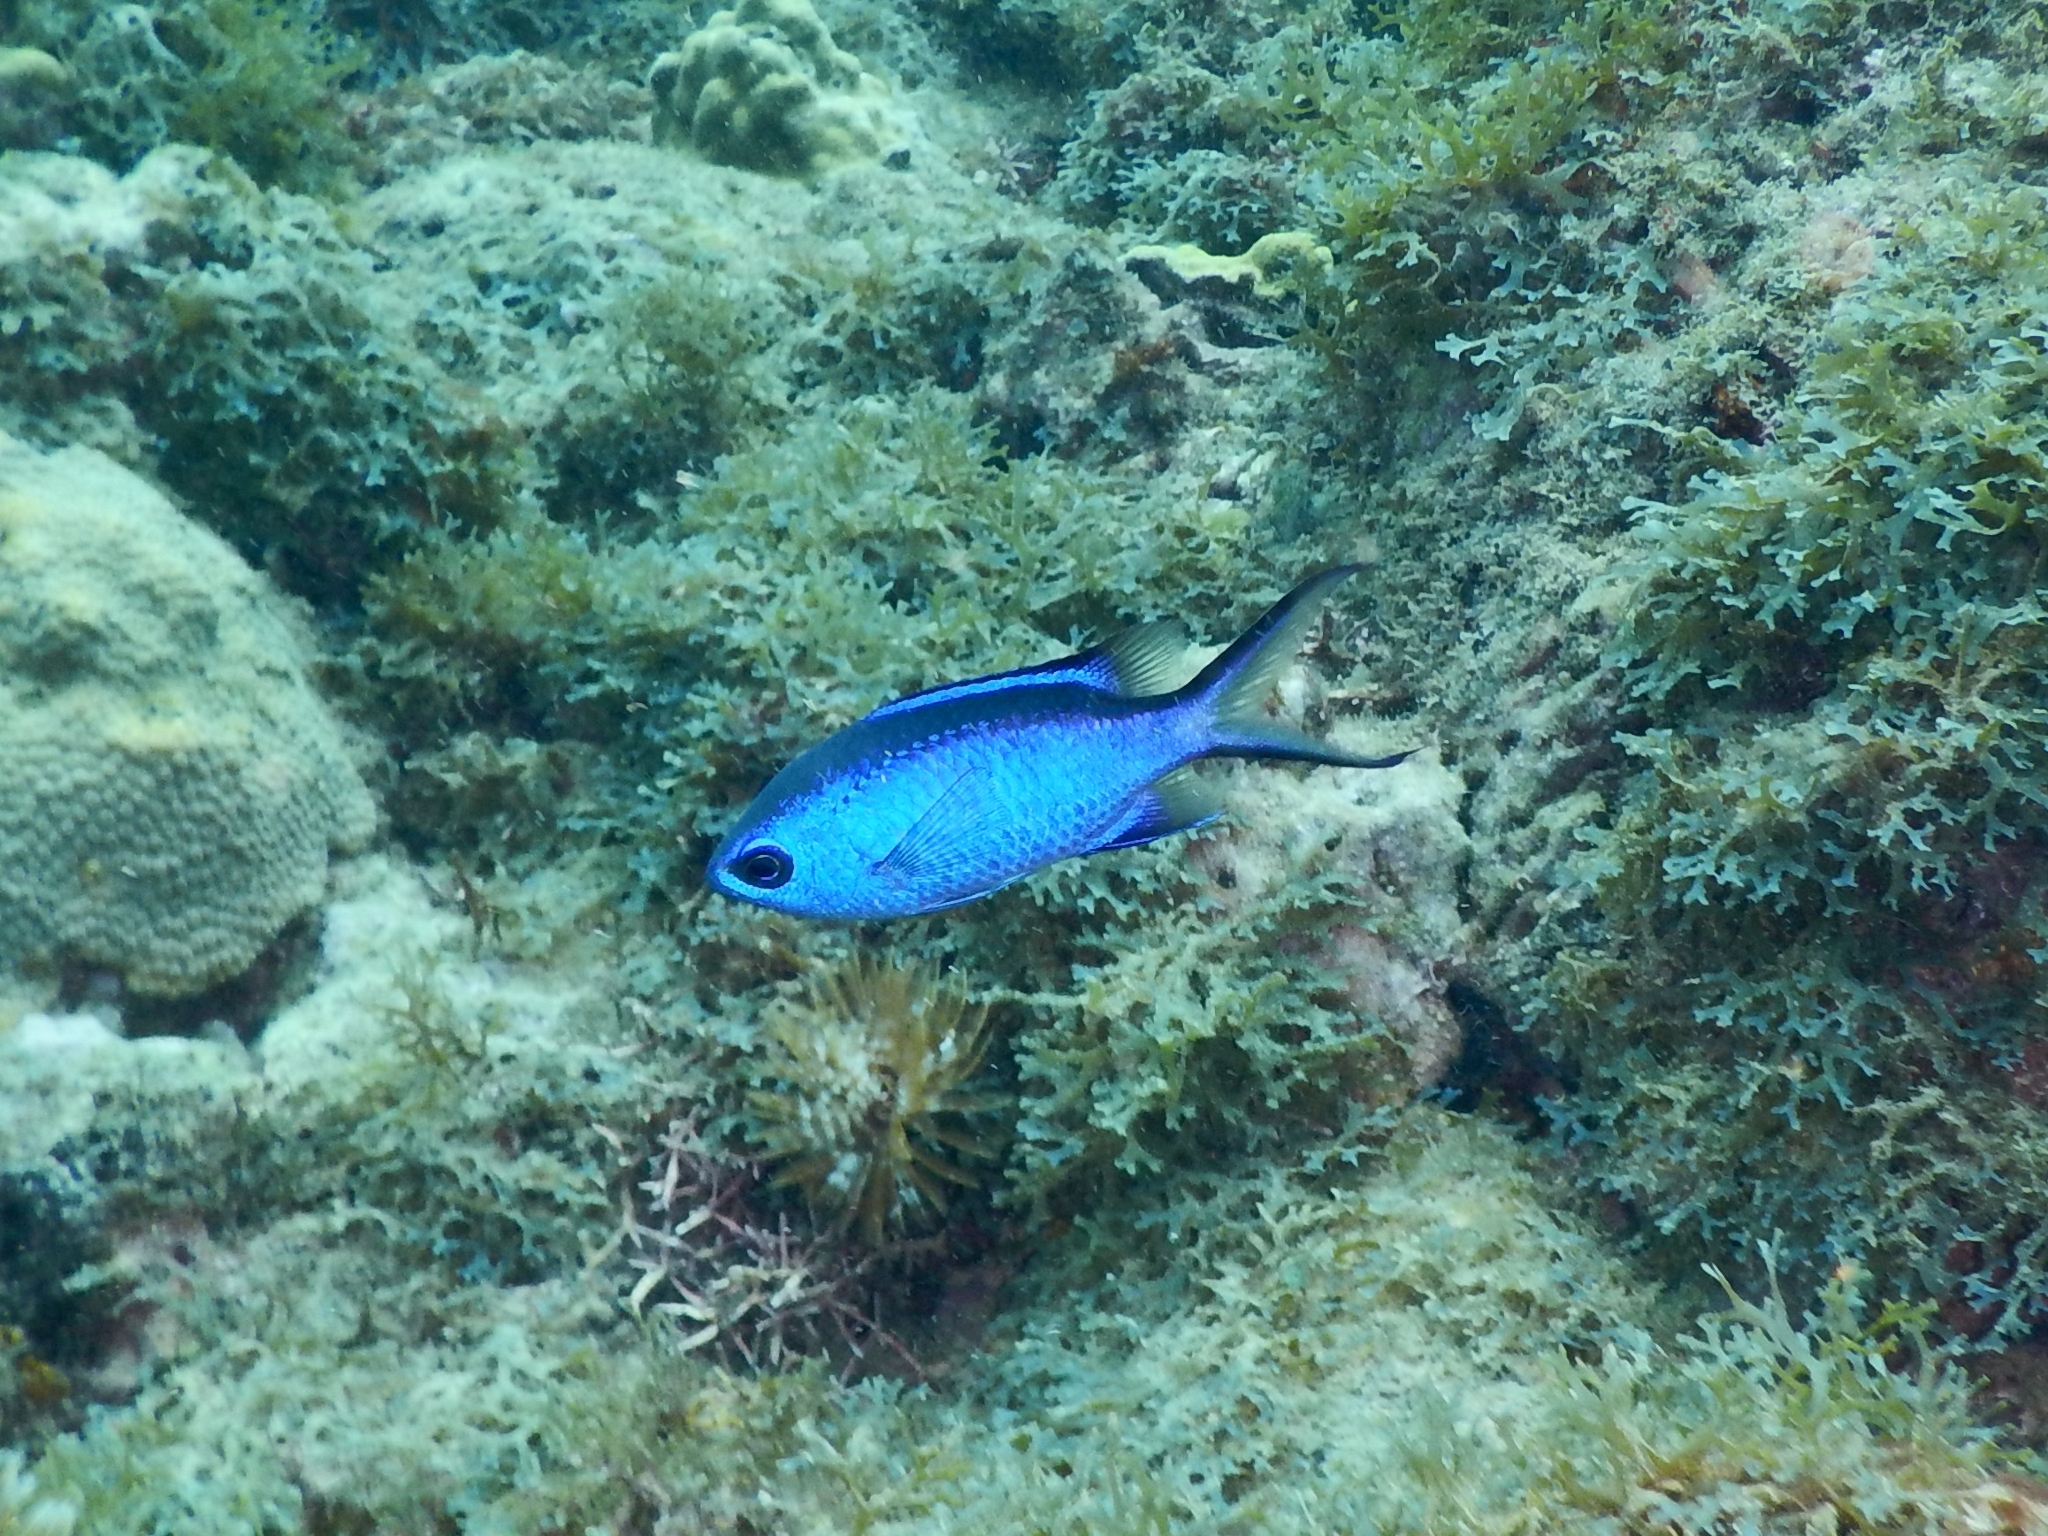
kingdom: Animalia
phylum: Chordata
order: Perciformes
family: Pomacentridae
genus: Chromis
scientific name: Chromis cyanea
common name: Blue chromis
